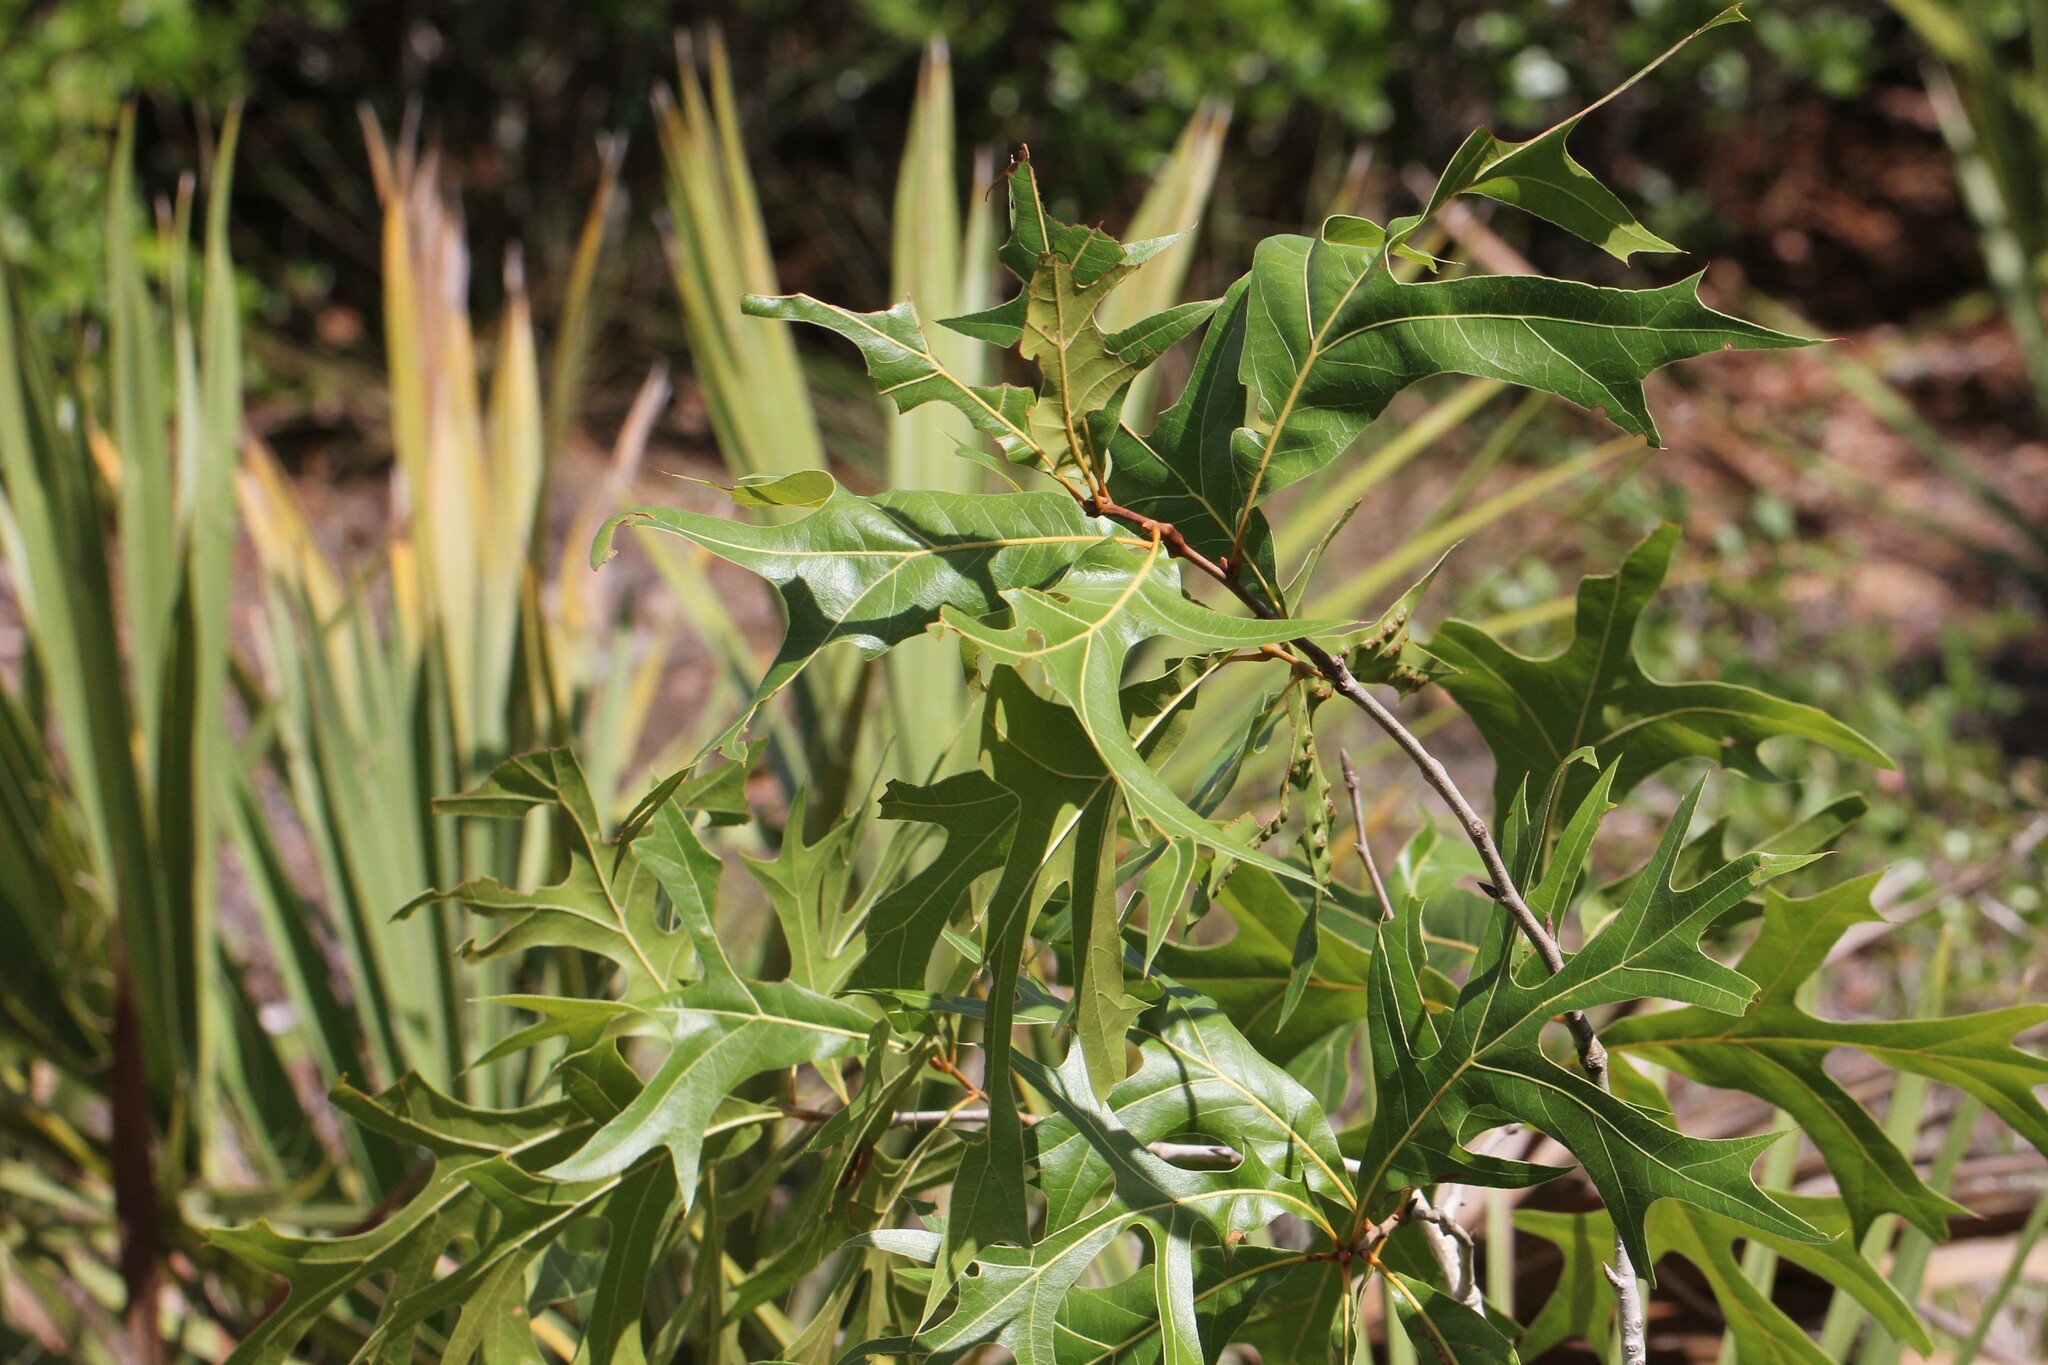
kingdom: Plantae
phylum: Tracheophyta
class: Magnoliopsida
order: Fagales
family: Fagaceae
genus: Quercus
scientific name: Quercus laevis
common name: Turkey oak
